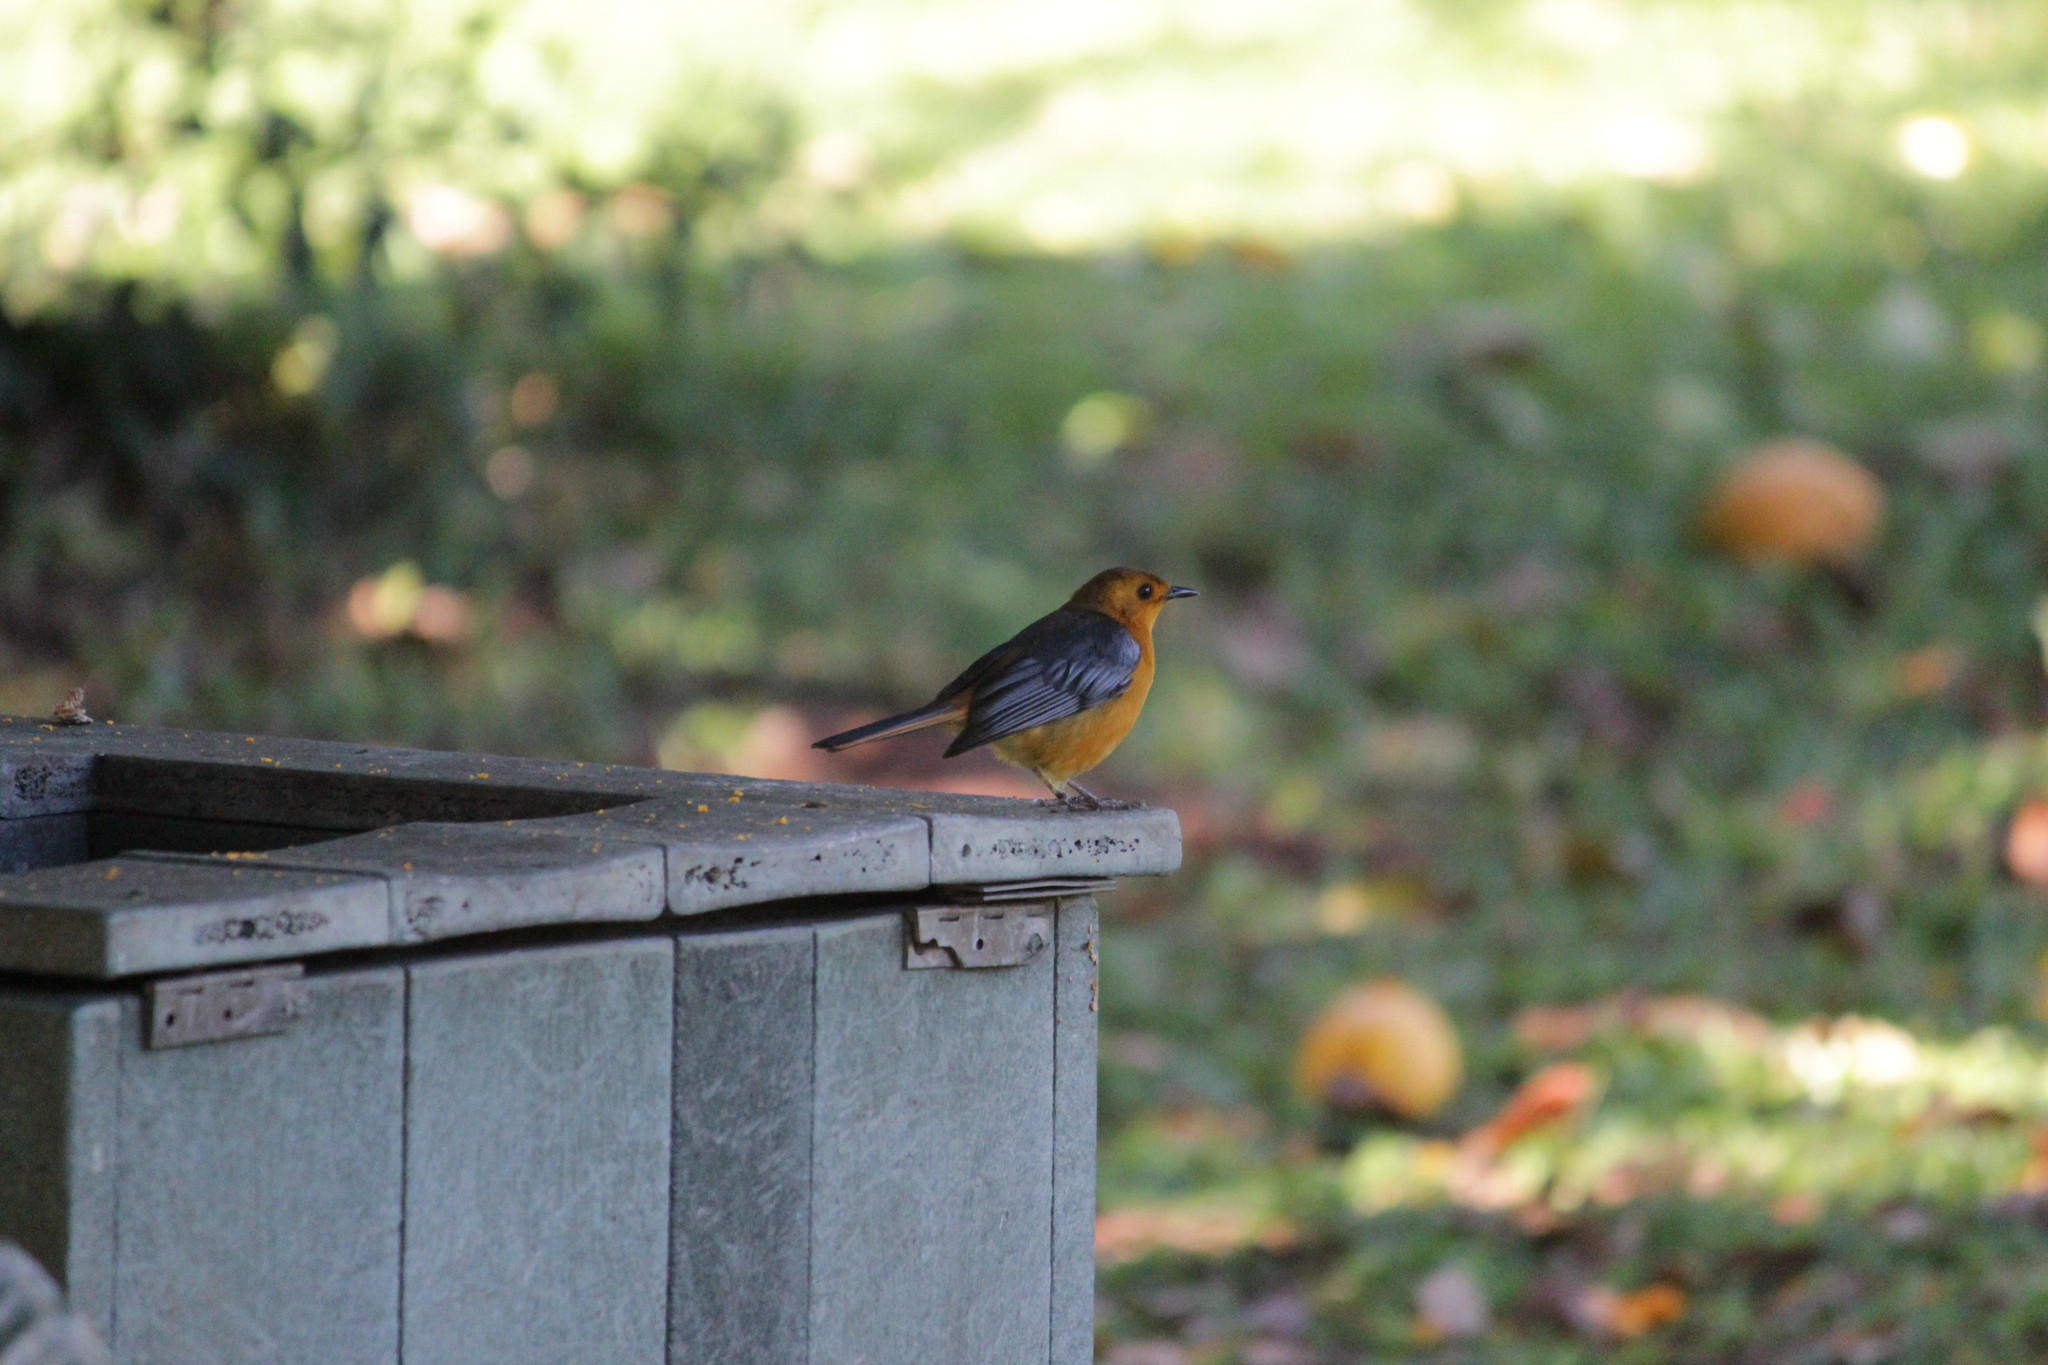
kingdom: Animalia
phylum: Chordata
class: Aves
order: Passeriformes
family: Muscicapidae
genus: Cossypha
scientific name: Cossypha natalensis
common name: Red-capped robin-chat
